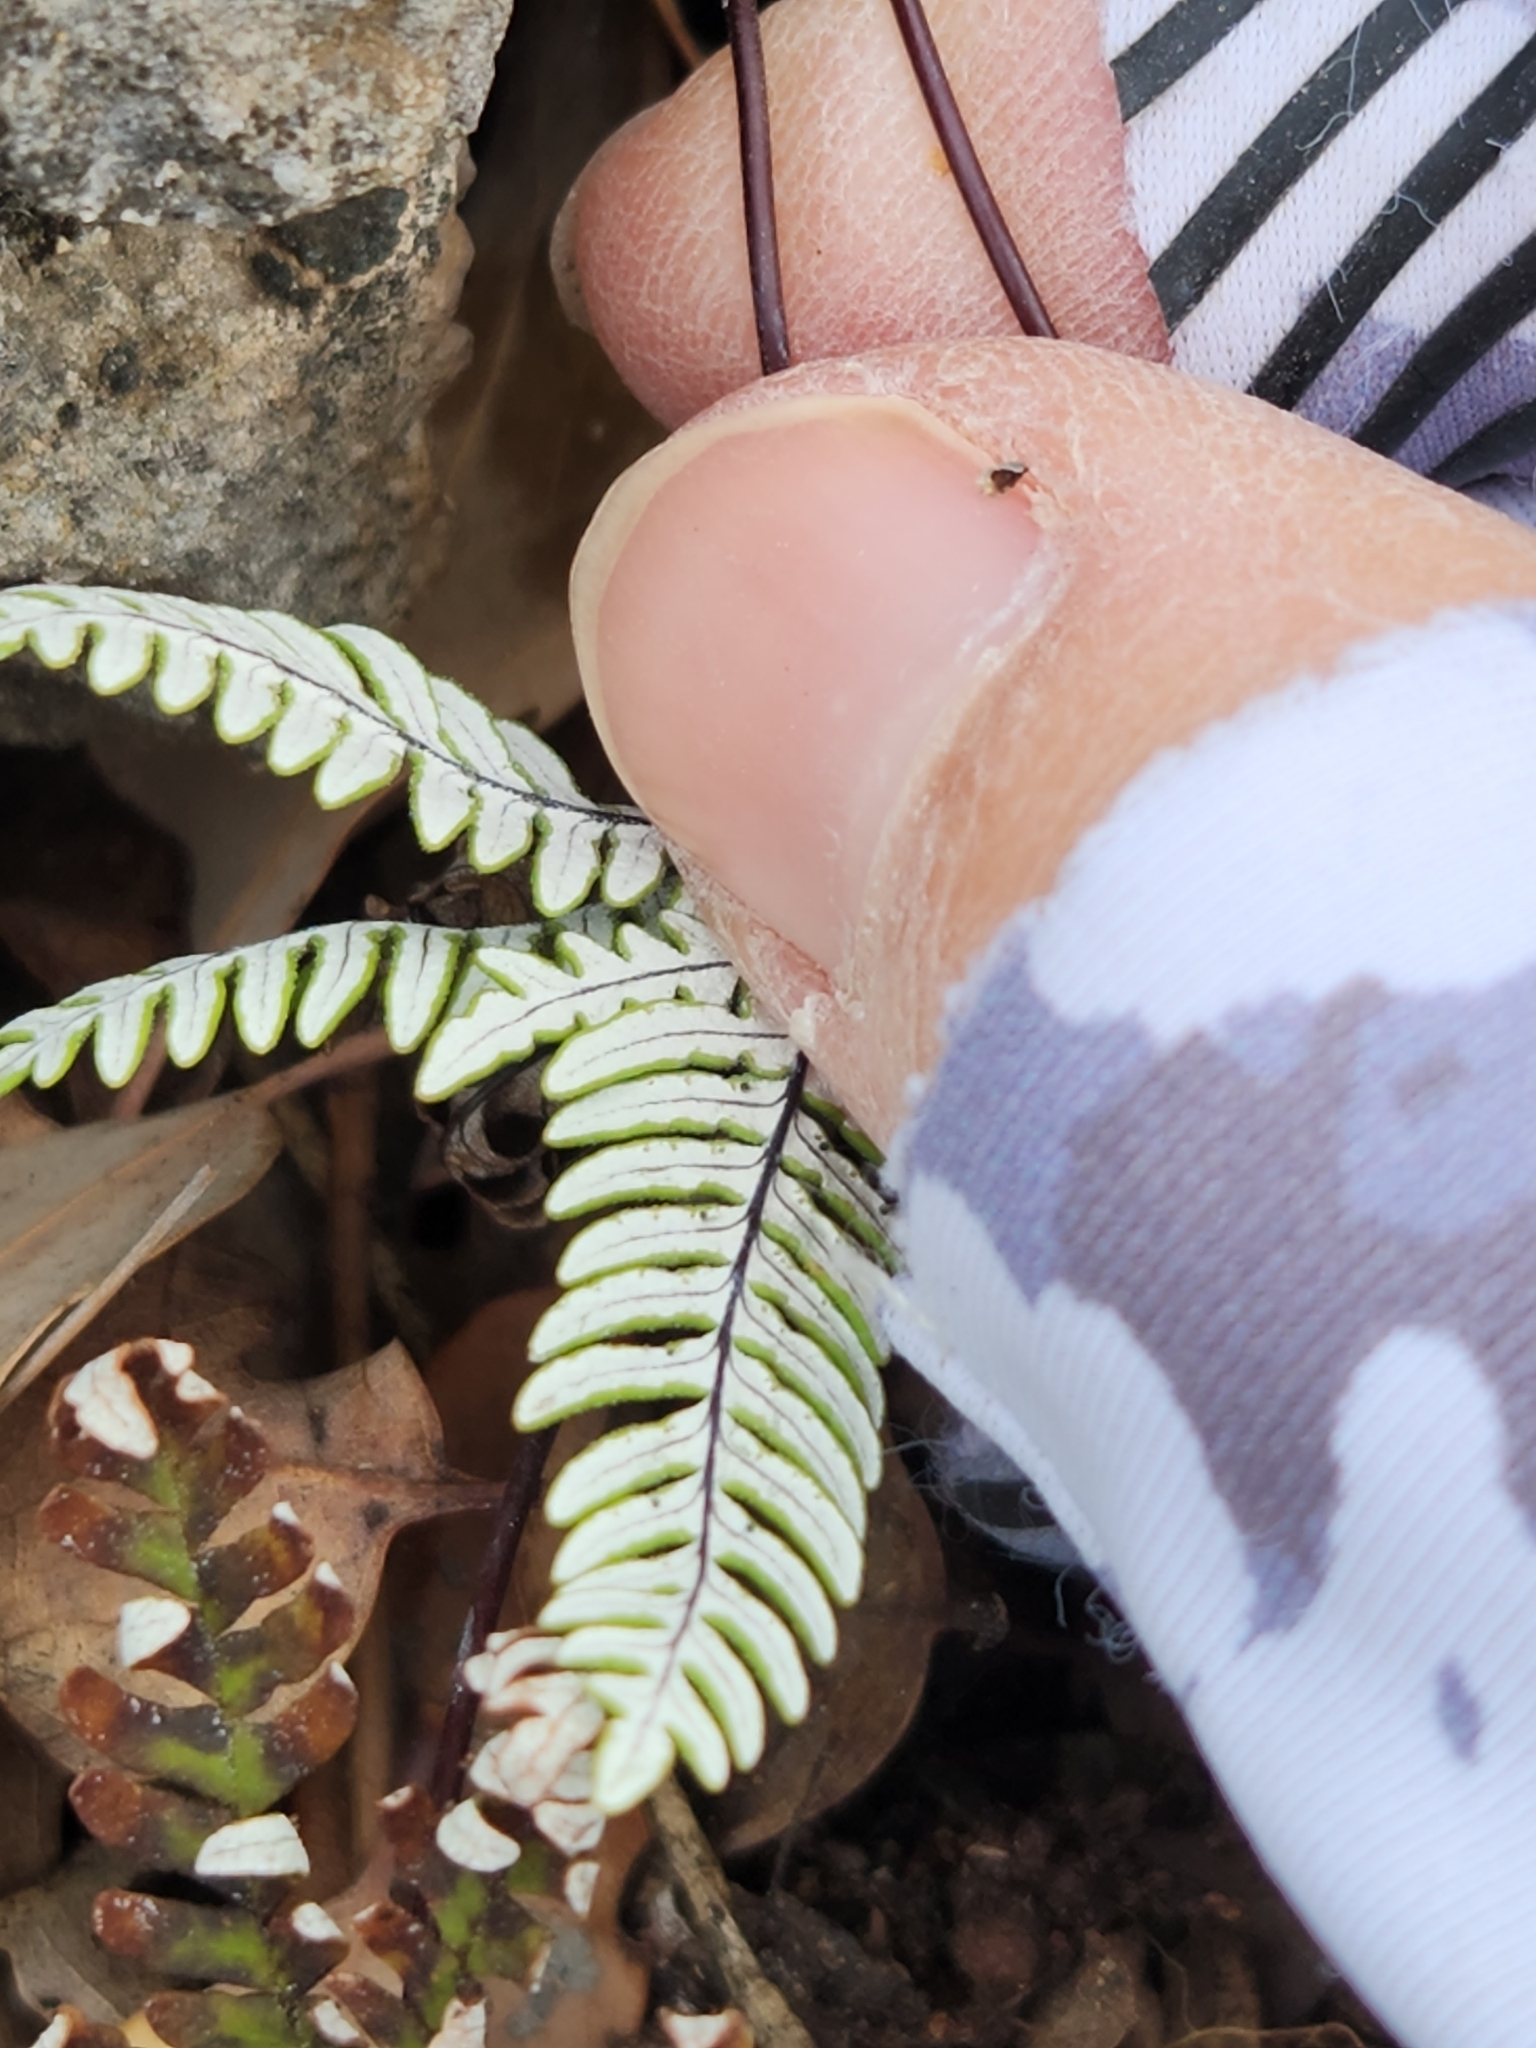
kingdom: Plantae
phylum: Tracheophyta
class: Polypodiopsida
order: Polypodiales
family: Pteridaceae
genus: Notholaena
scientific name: Notholaena candida
